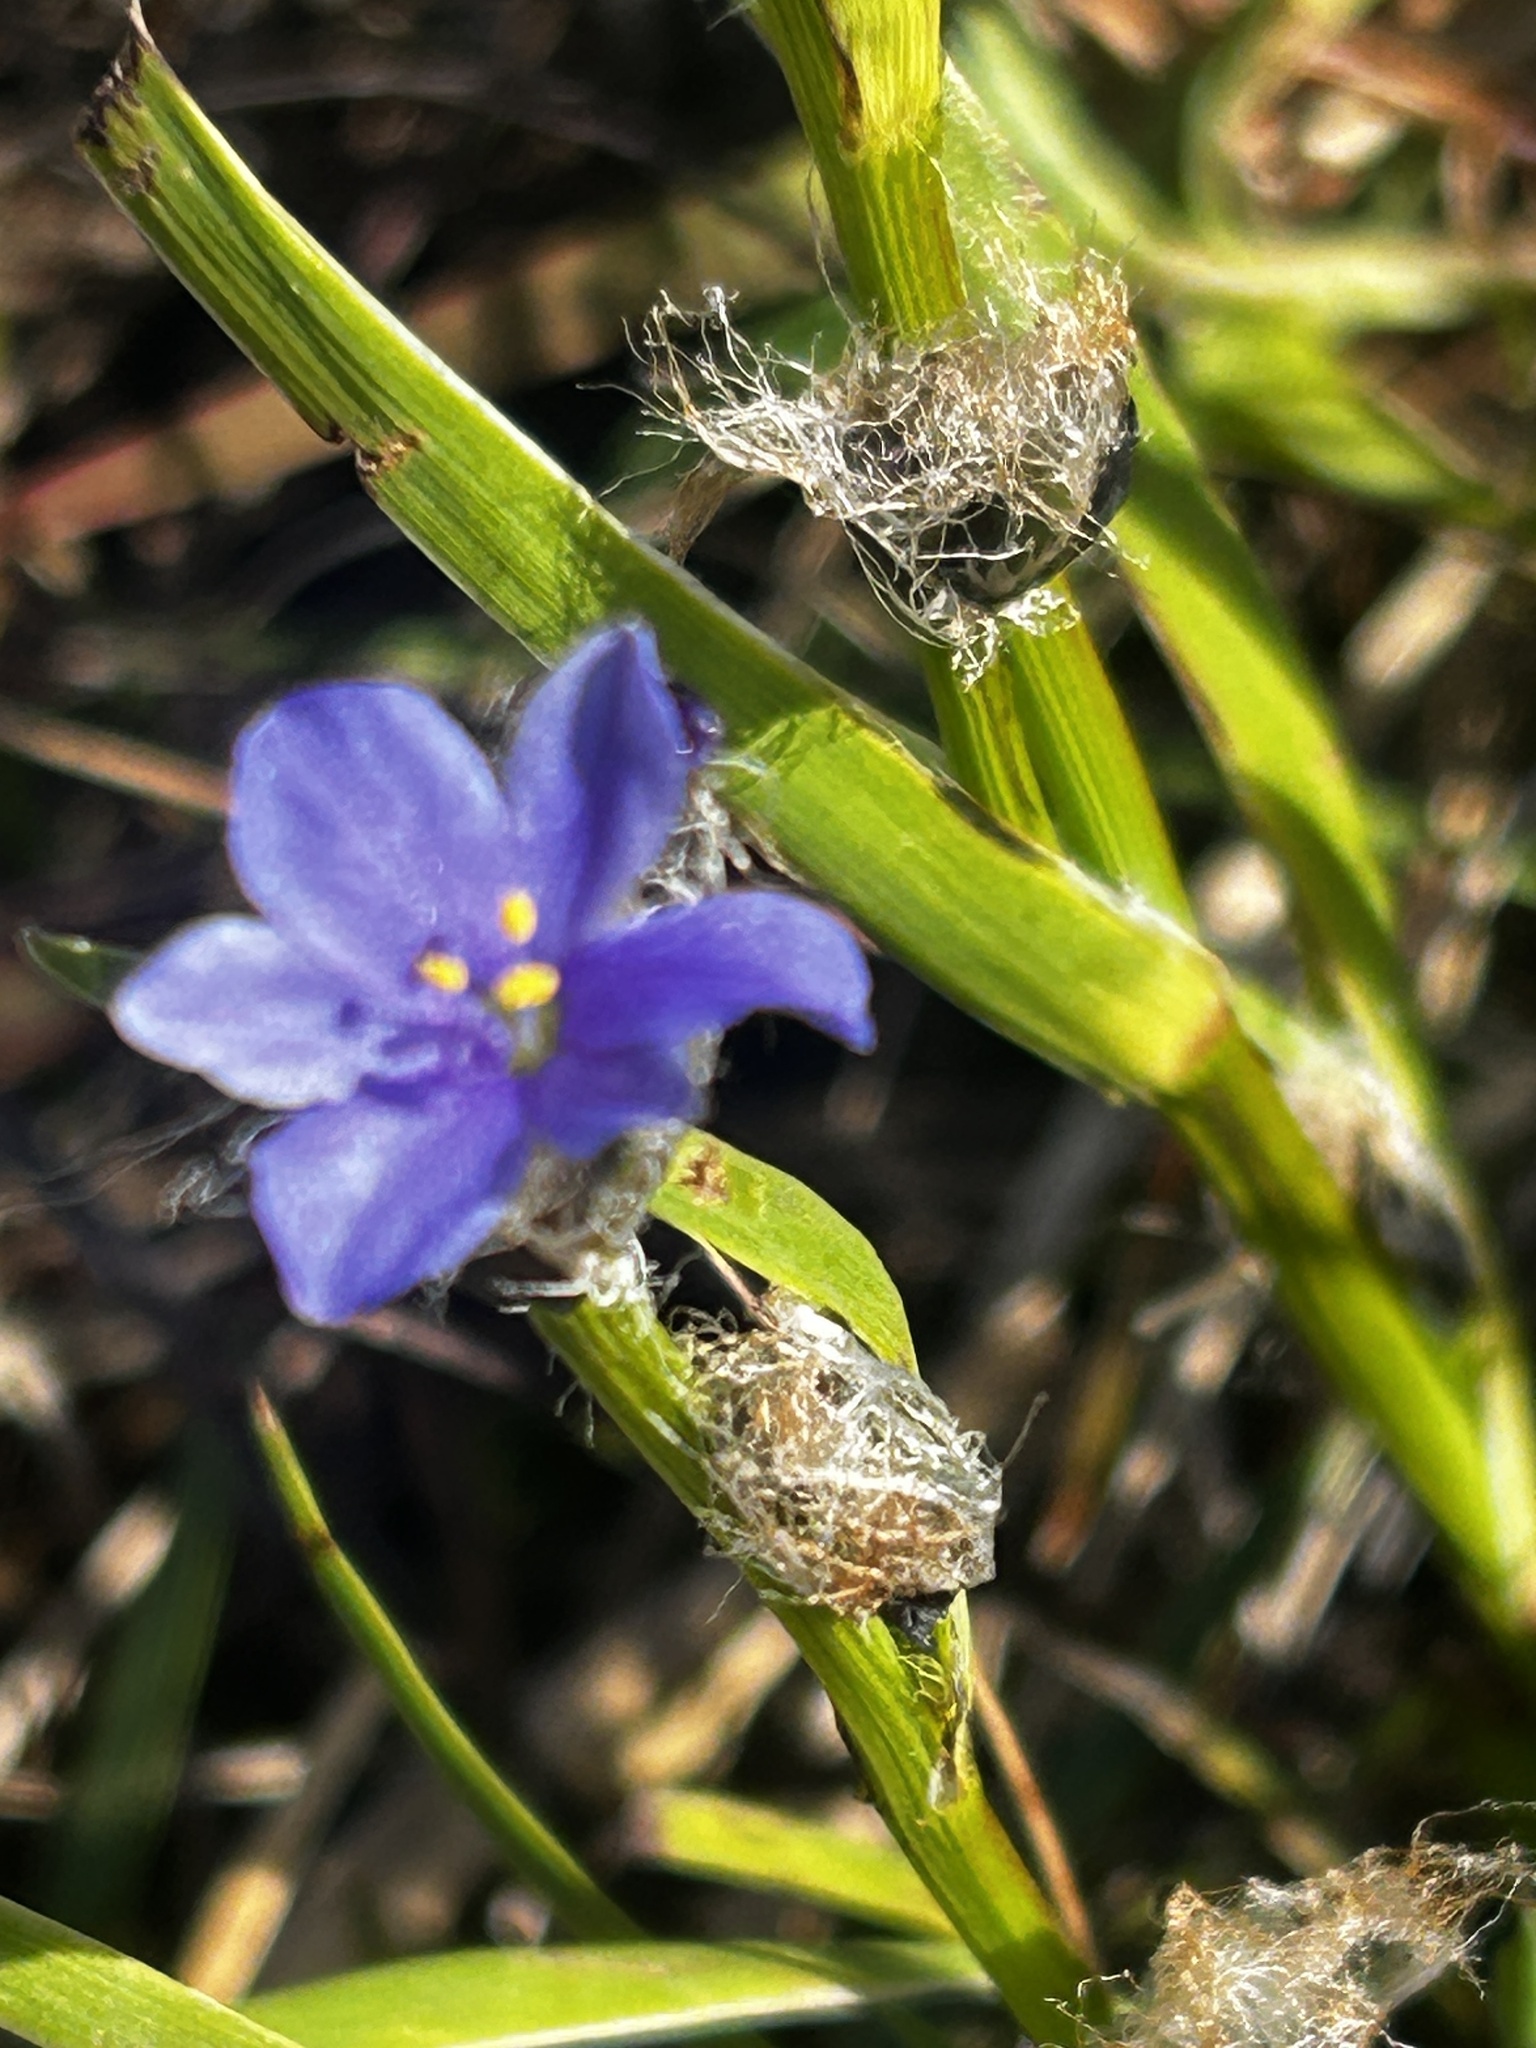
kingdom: Plantae
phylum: Tracheophyta
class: Liliopsida
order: Asparagales
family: Iridaceae
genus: Aristea
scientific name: Aristea africana
